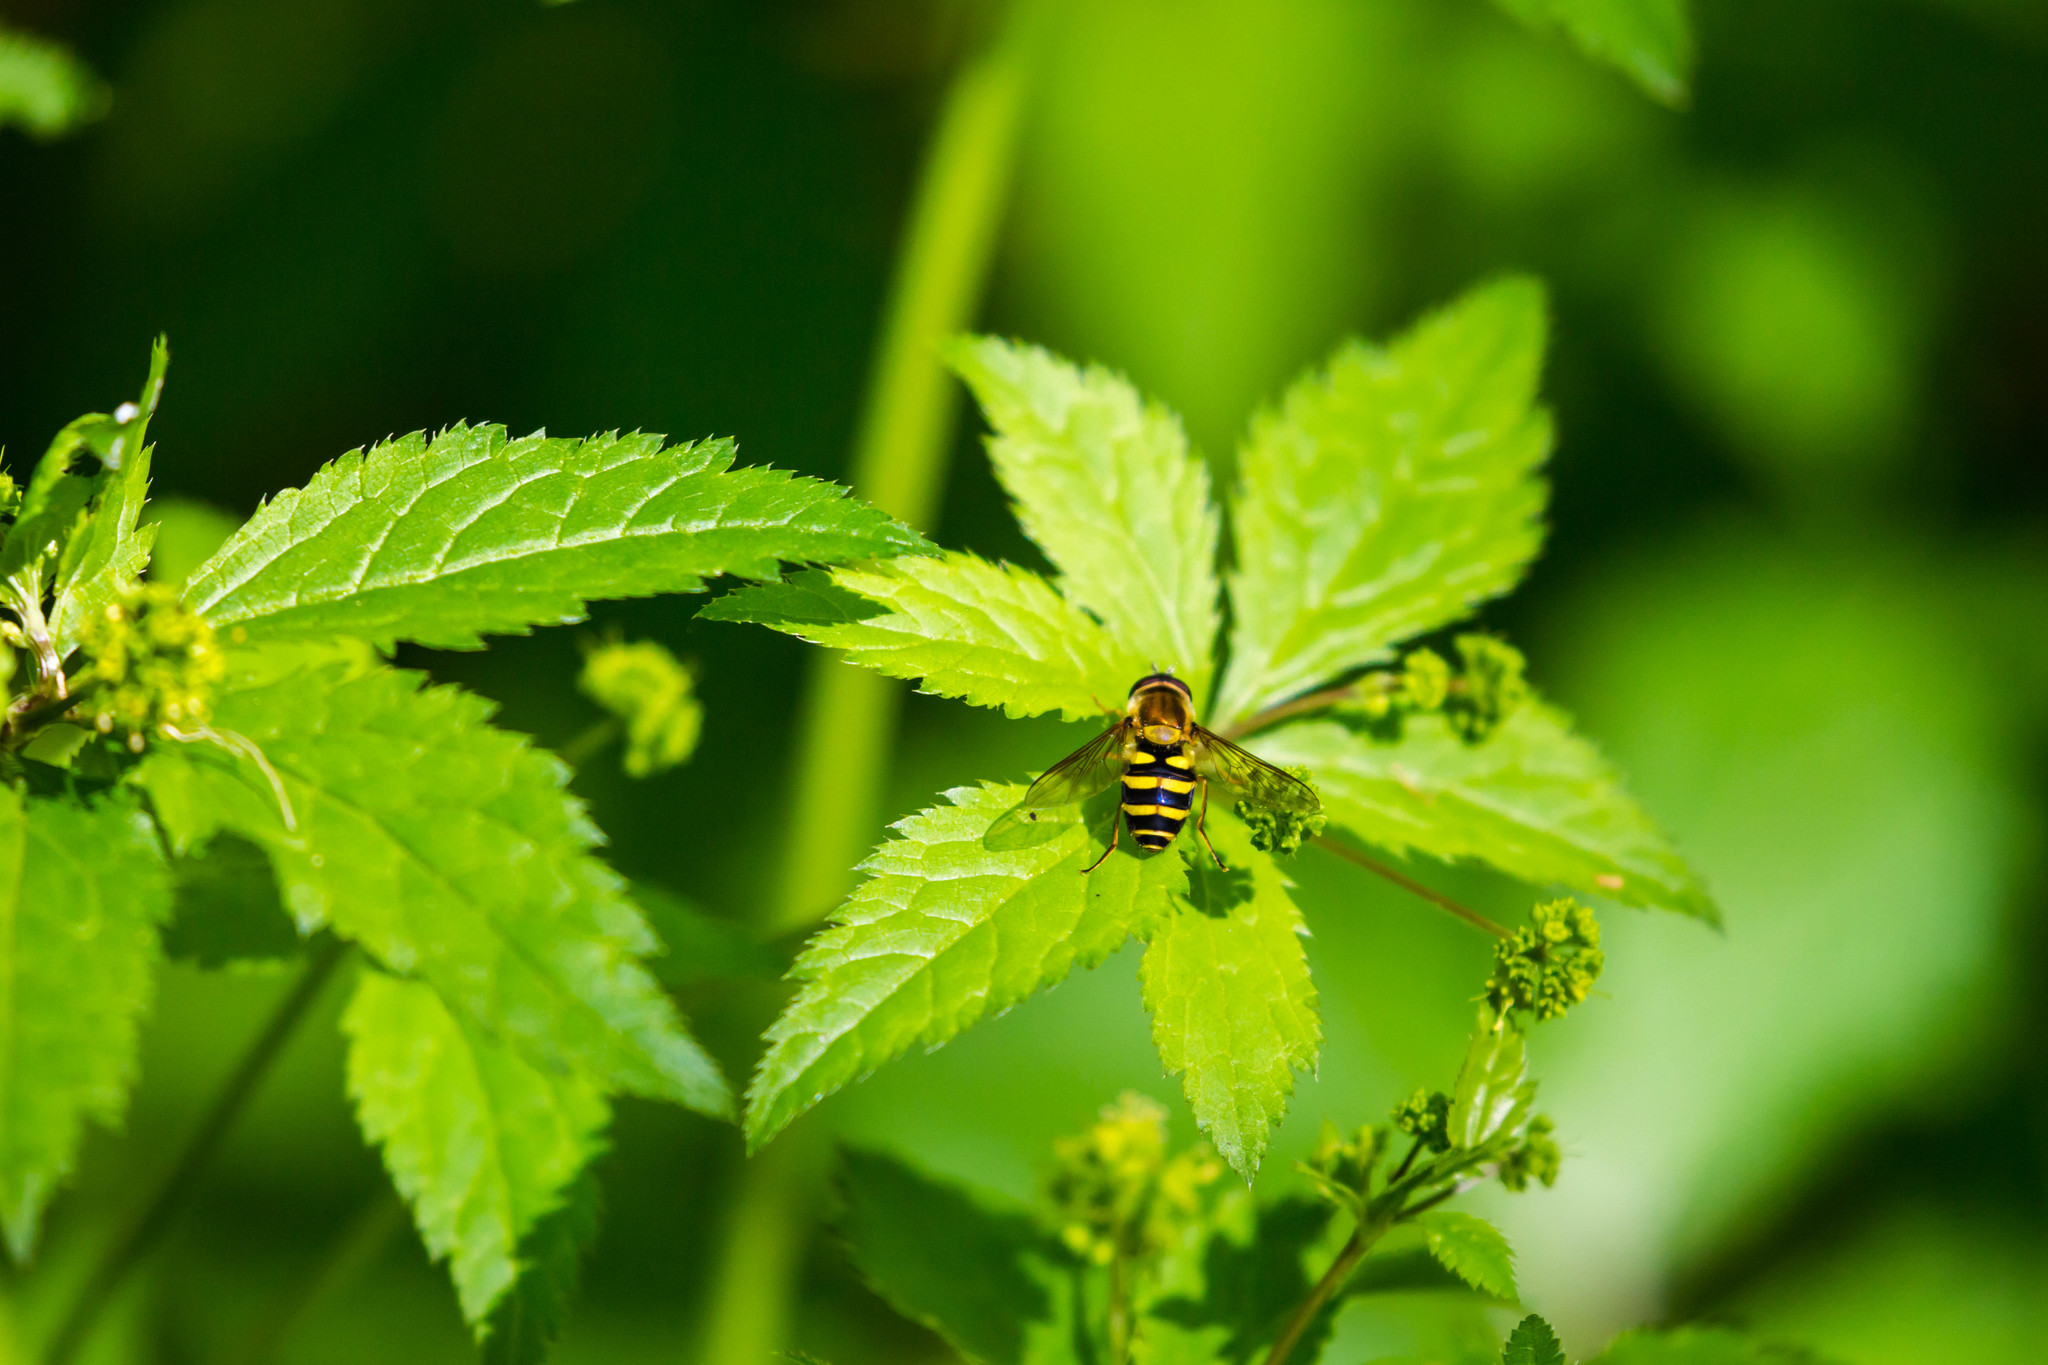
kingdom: Animalia
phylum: Arthropoda
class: Insecta
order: Diptera
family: Syrphidae
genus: Syrphus
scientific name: Syrphus
